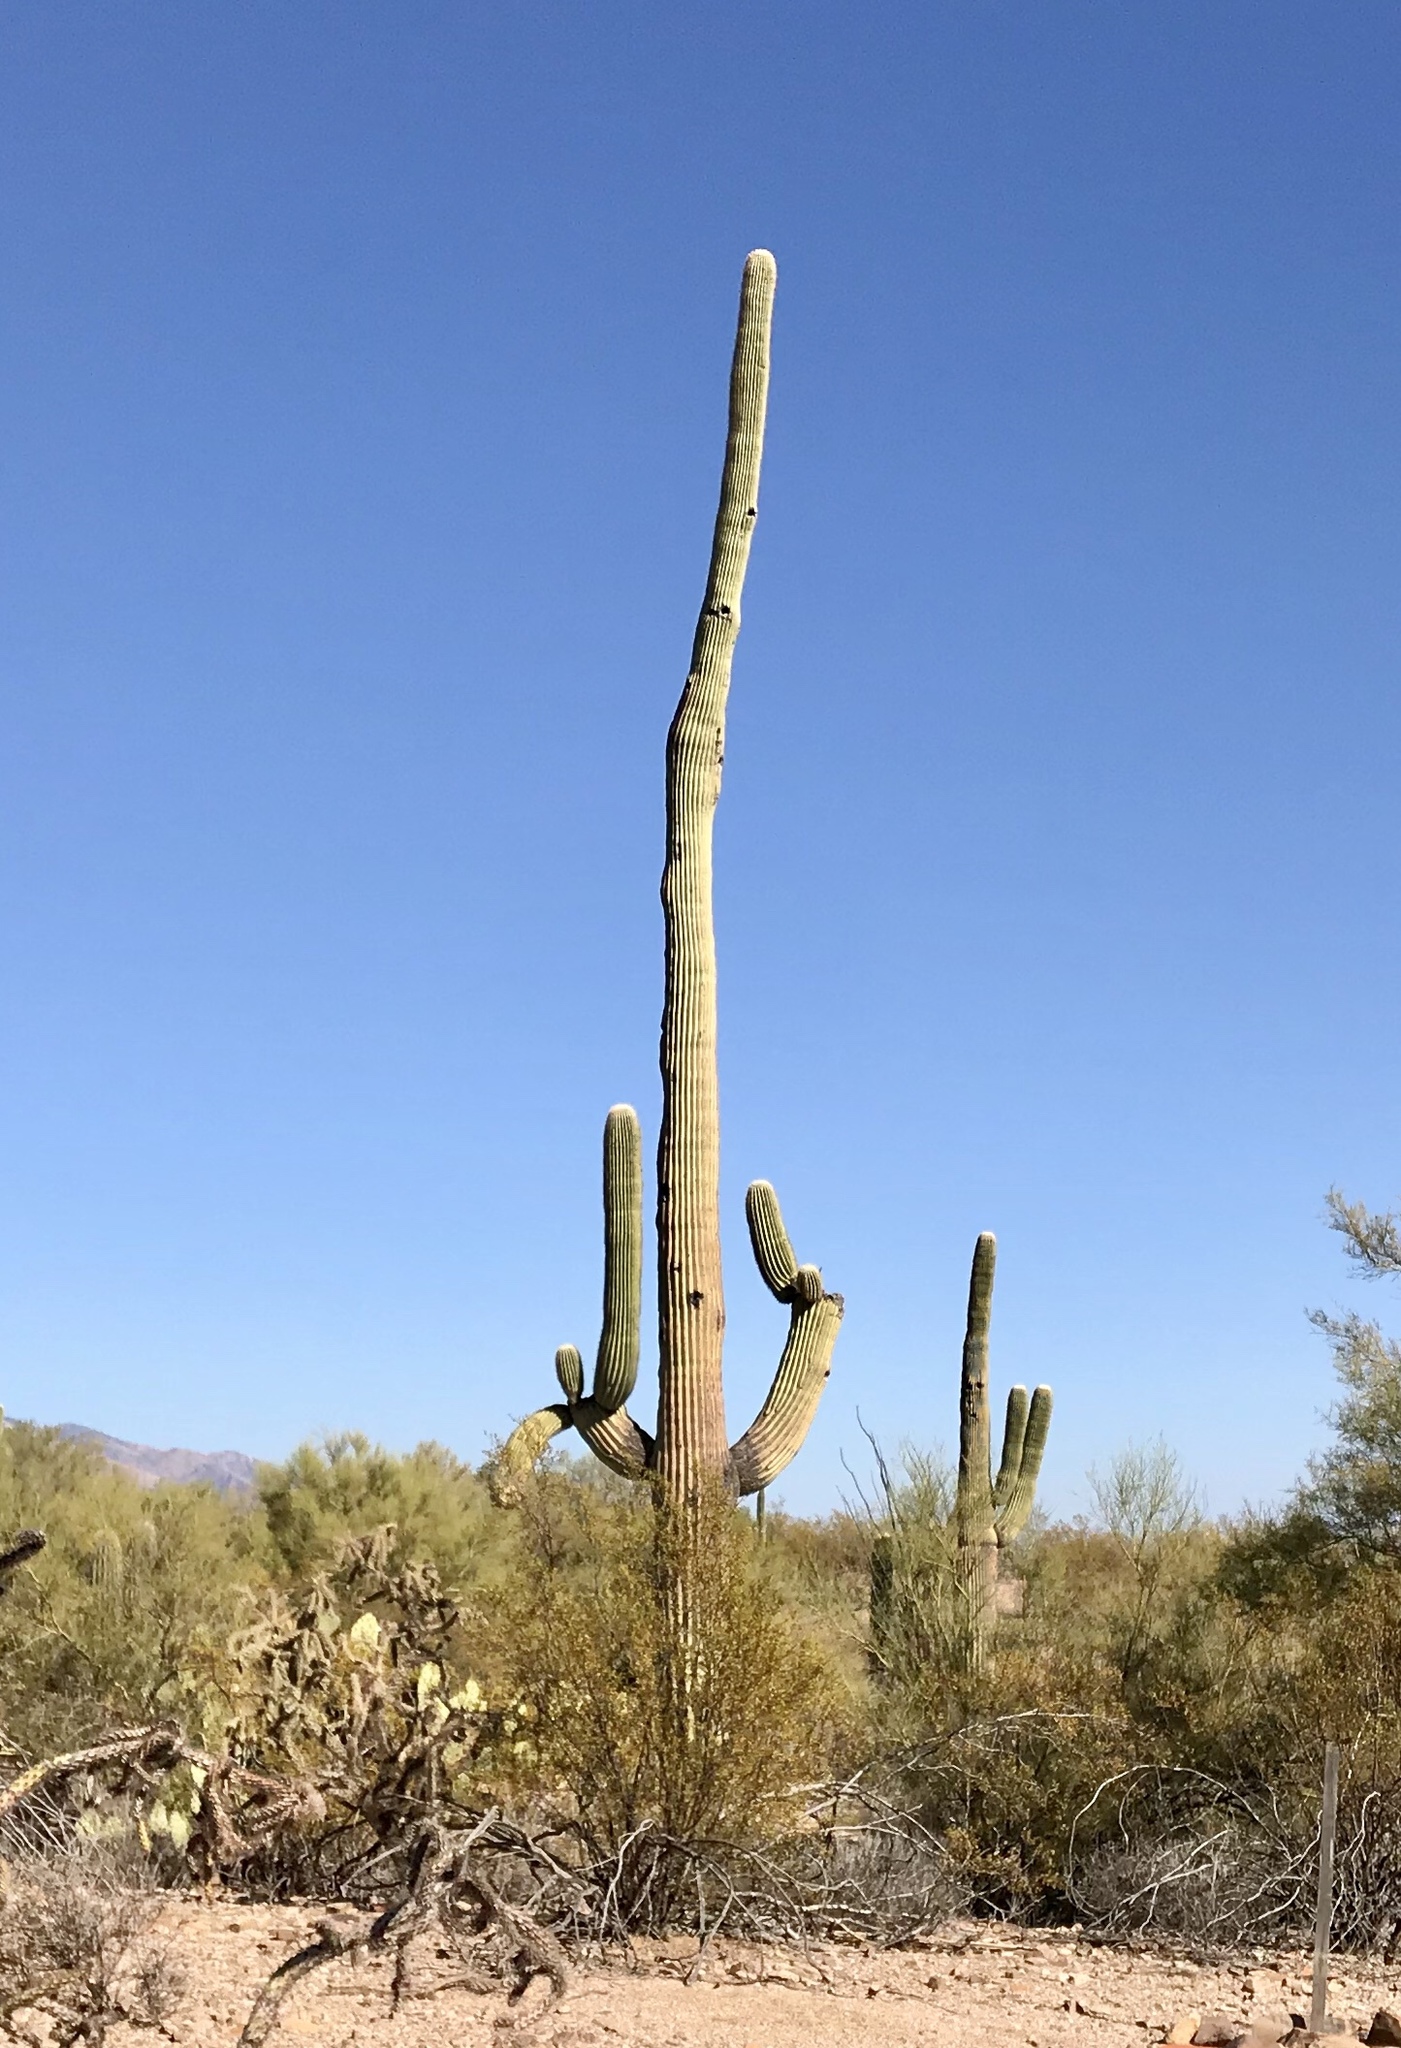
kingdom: Plantae
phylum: Tracheophyta
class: Magnoliopsida
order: Caryophyllales
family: Cactaceae
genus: Carnegiea
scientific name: Carnegiea gigantea
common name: Saguaro
